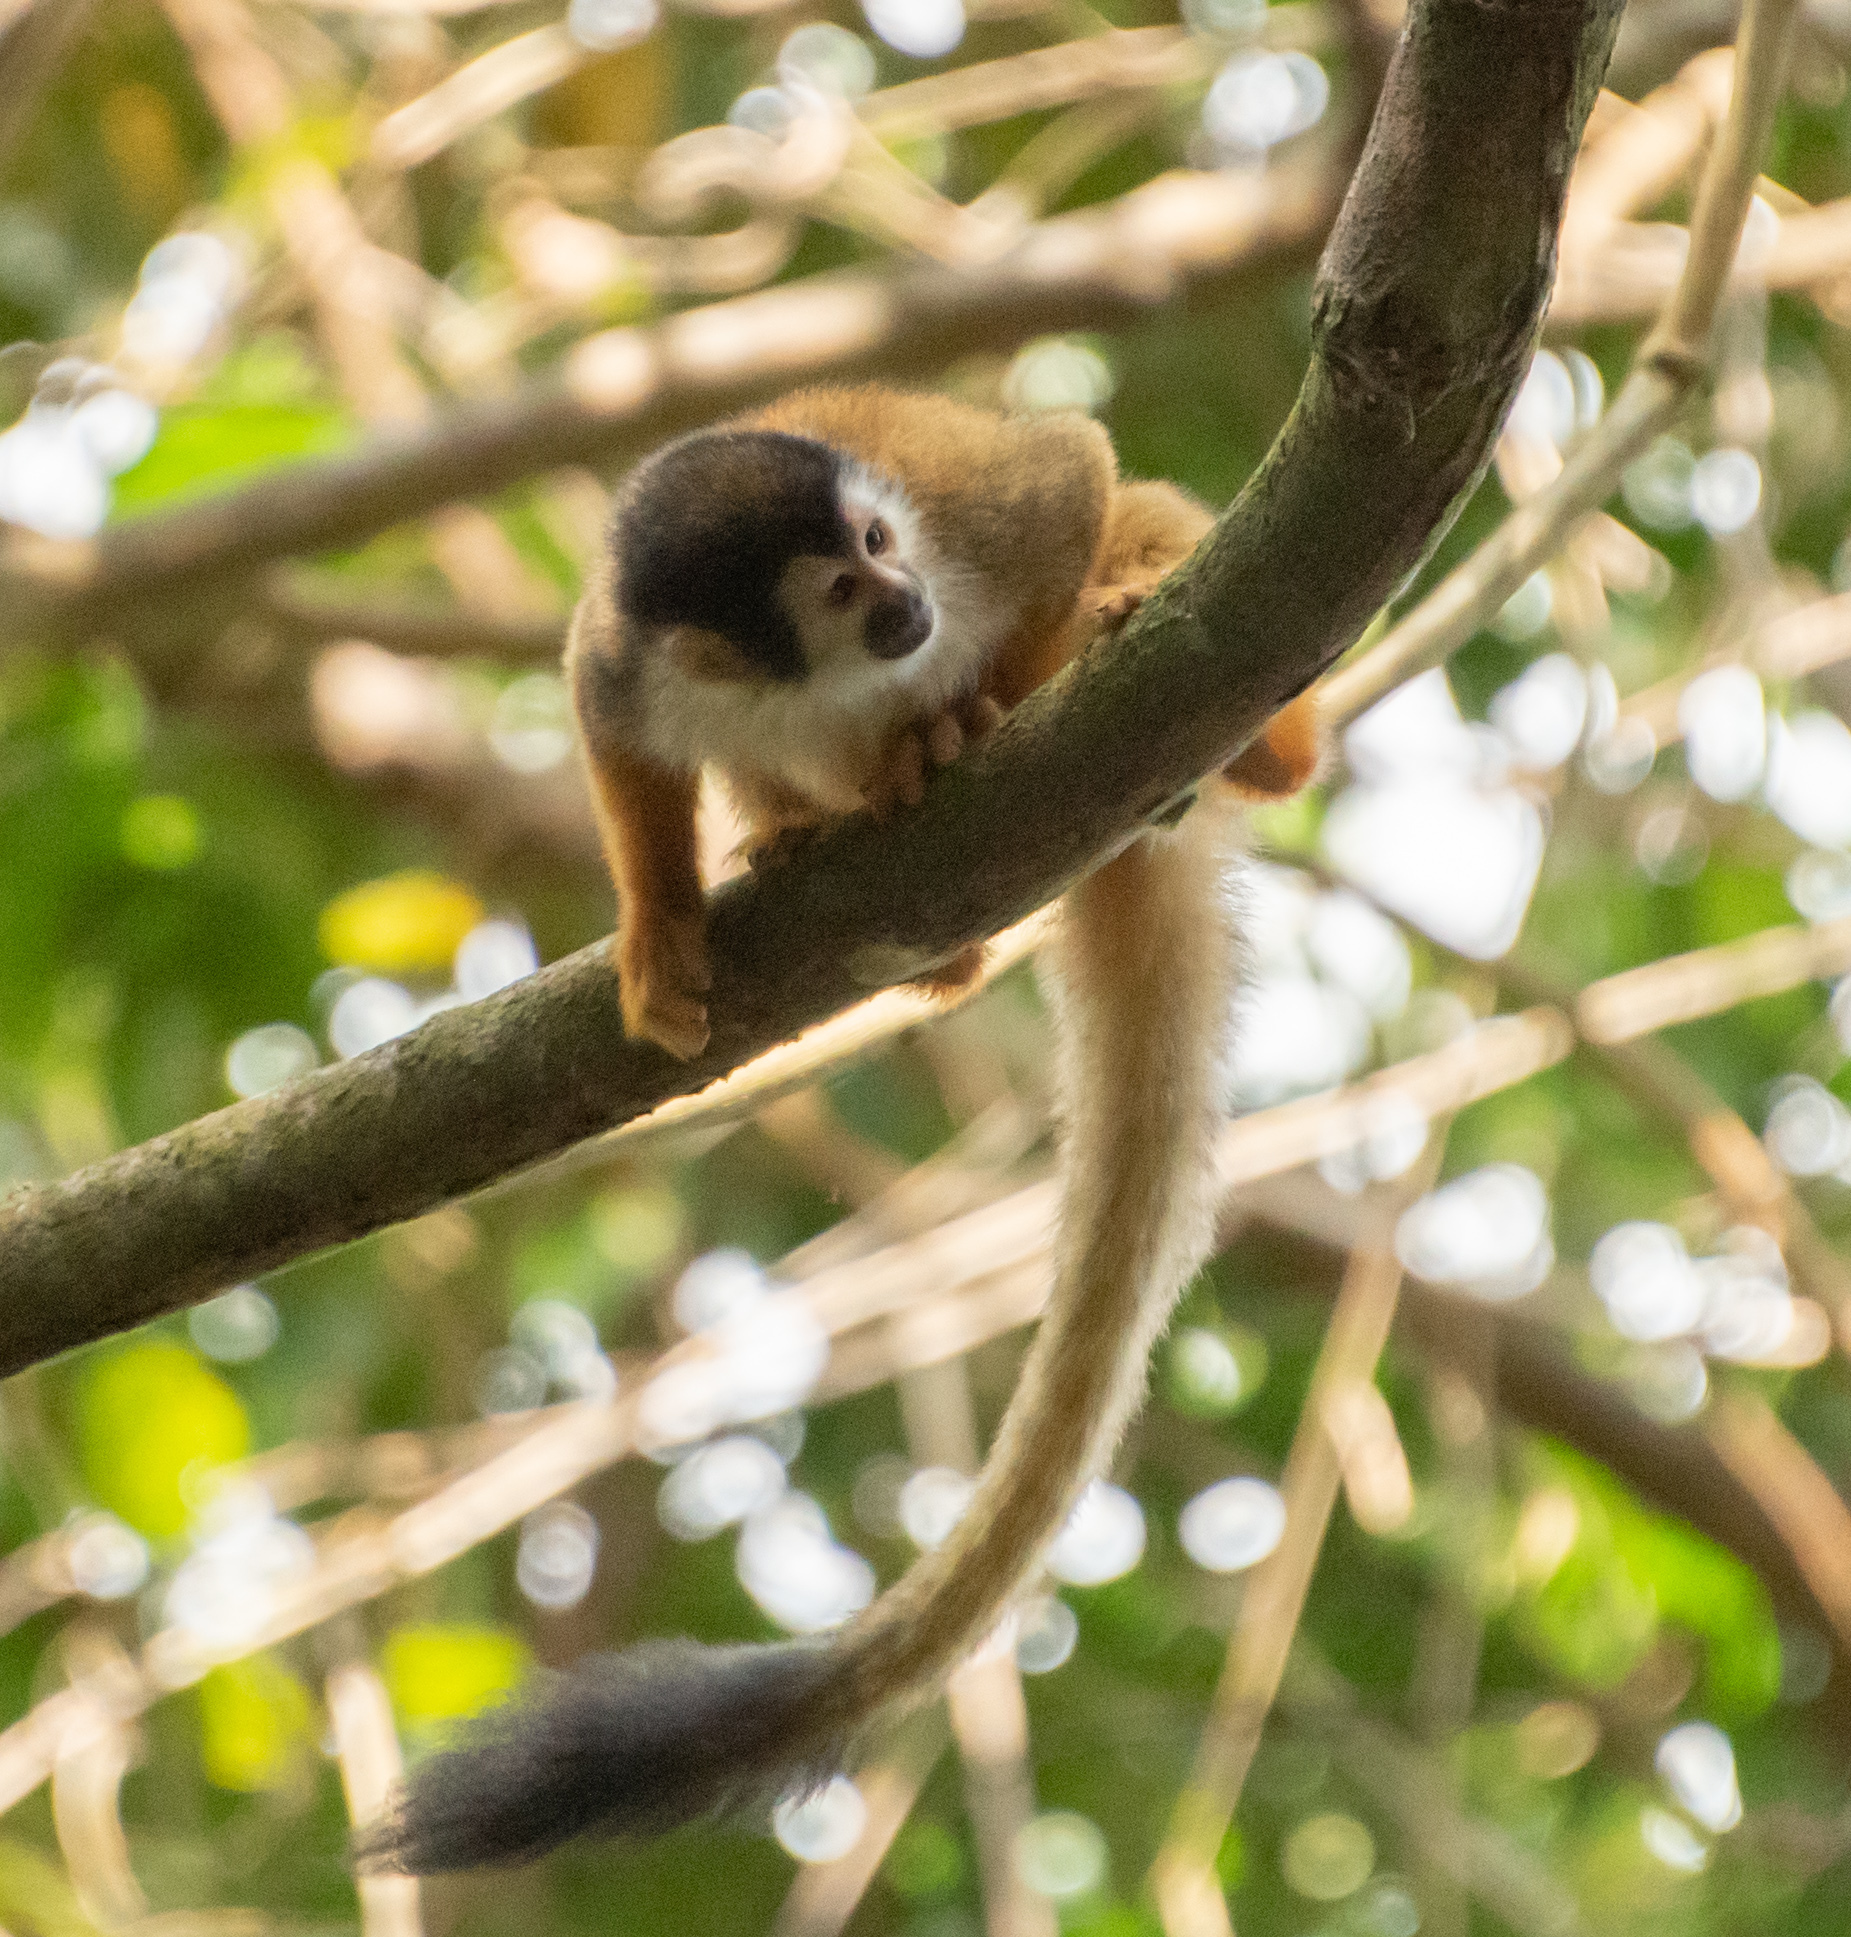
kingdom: Animalia
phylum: Chordata
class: Mammalia
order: Primates
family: Cebidae
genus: Saimiri
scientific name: Saimiri oerstedii
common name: Central american squirrel monkey
